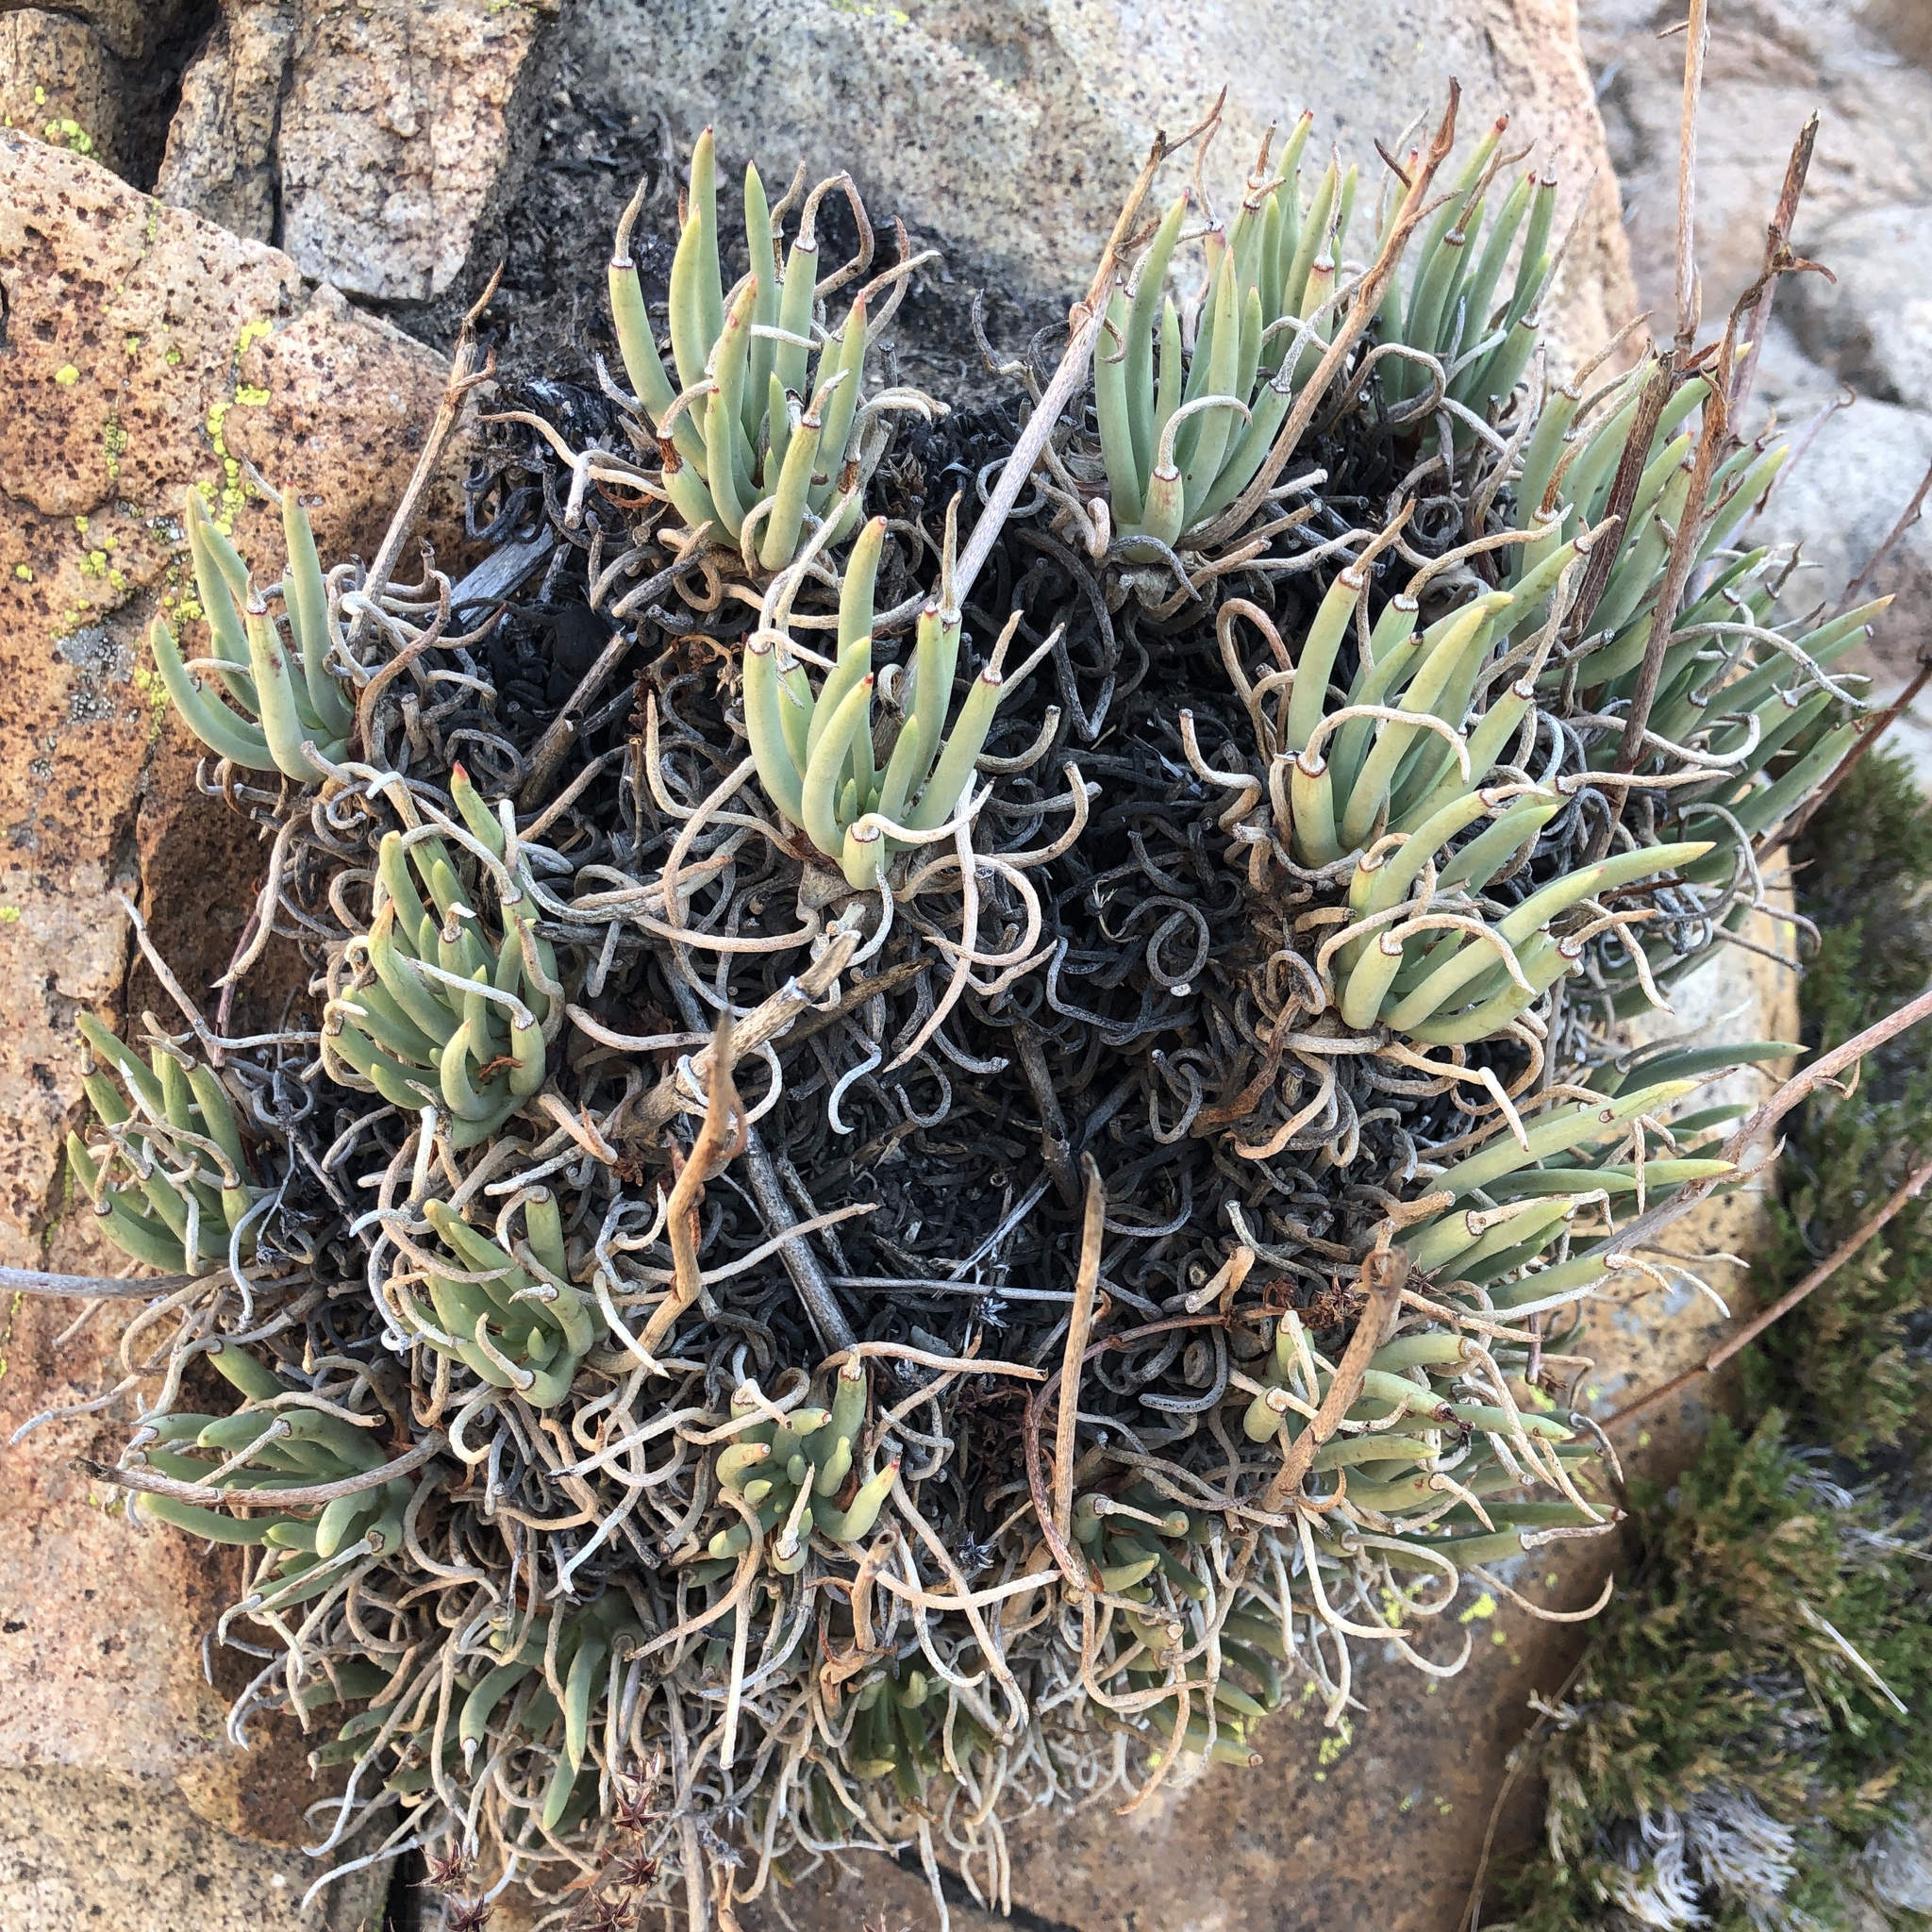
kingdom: Plantae
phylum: Tracheophyta
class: Magnoliopsida
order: Saxifragales
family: Crassulaceae
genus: Dudleya
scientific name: Dudleya edulis
